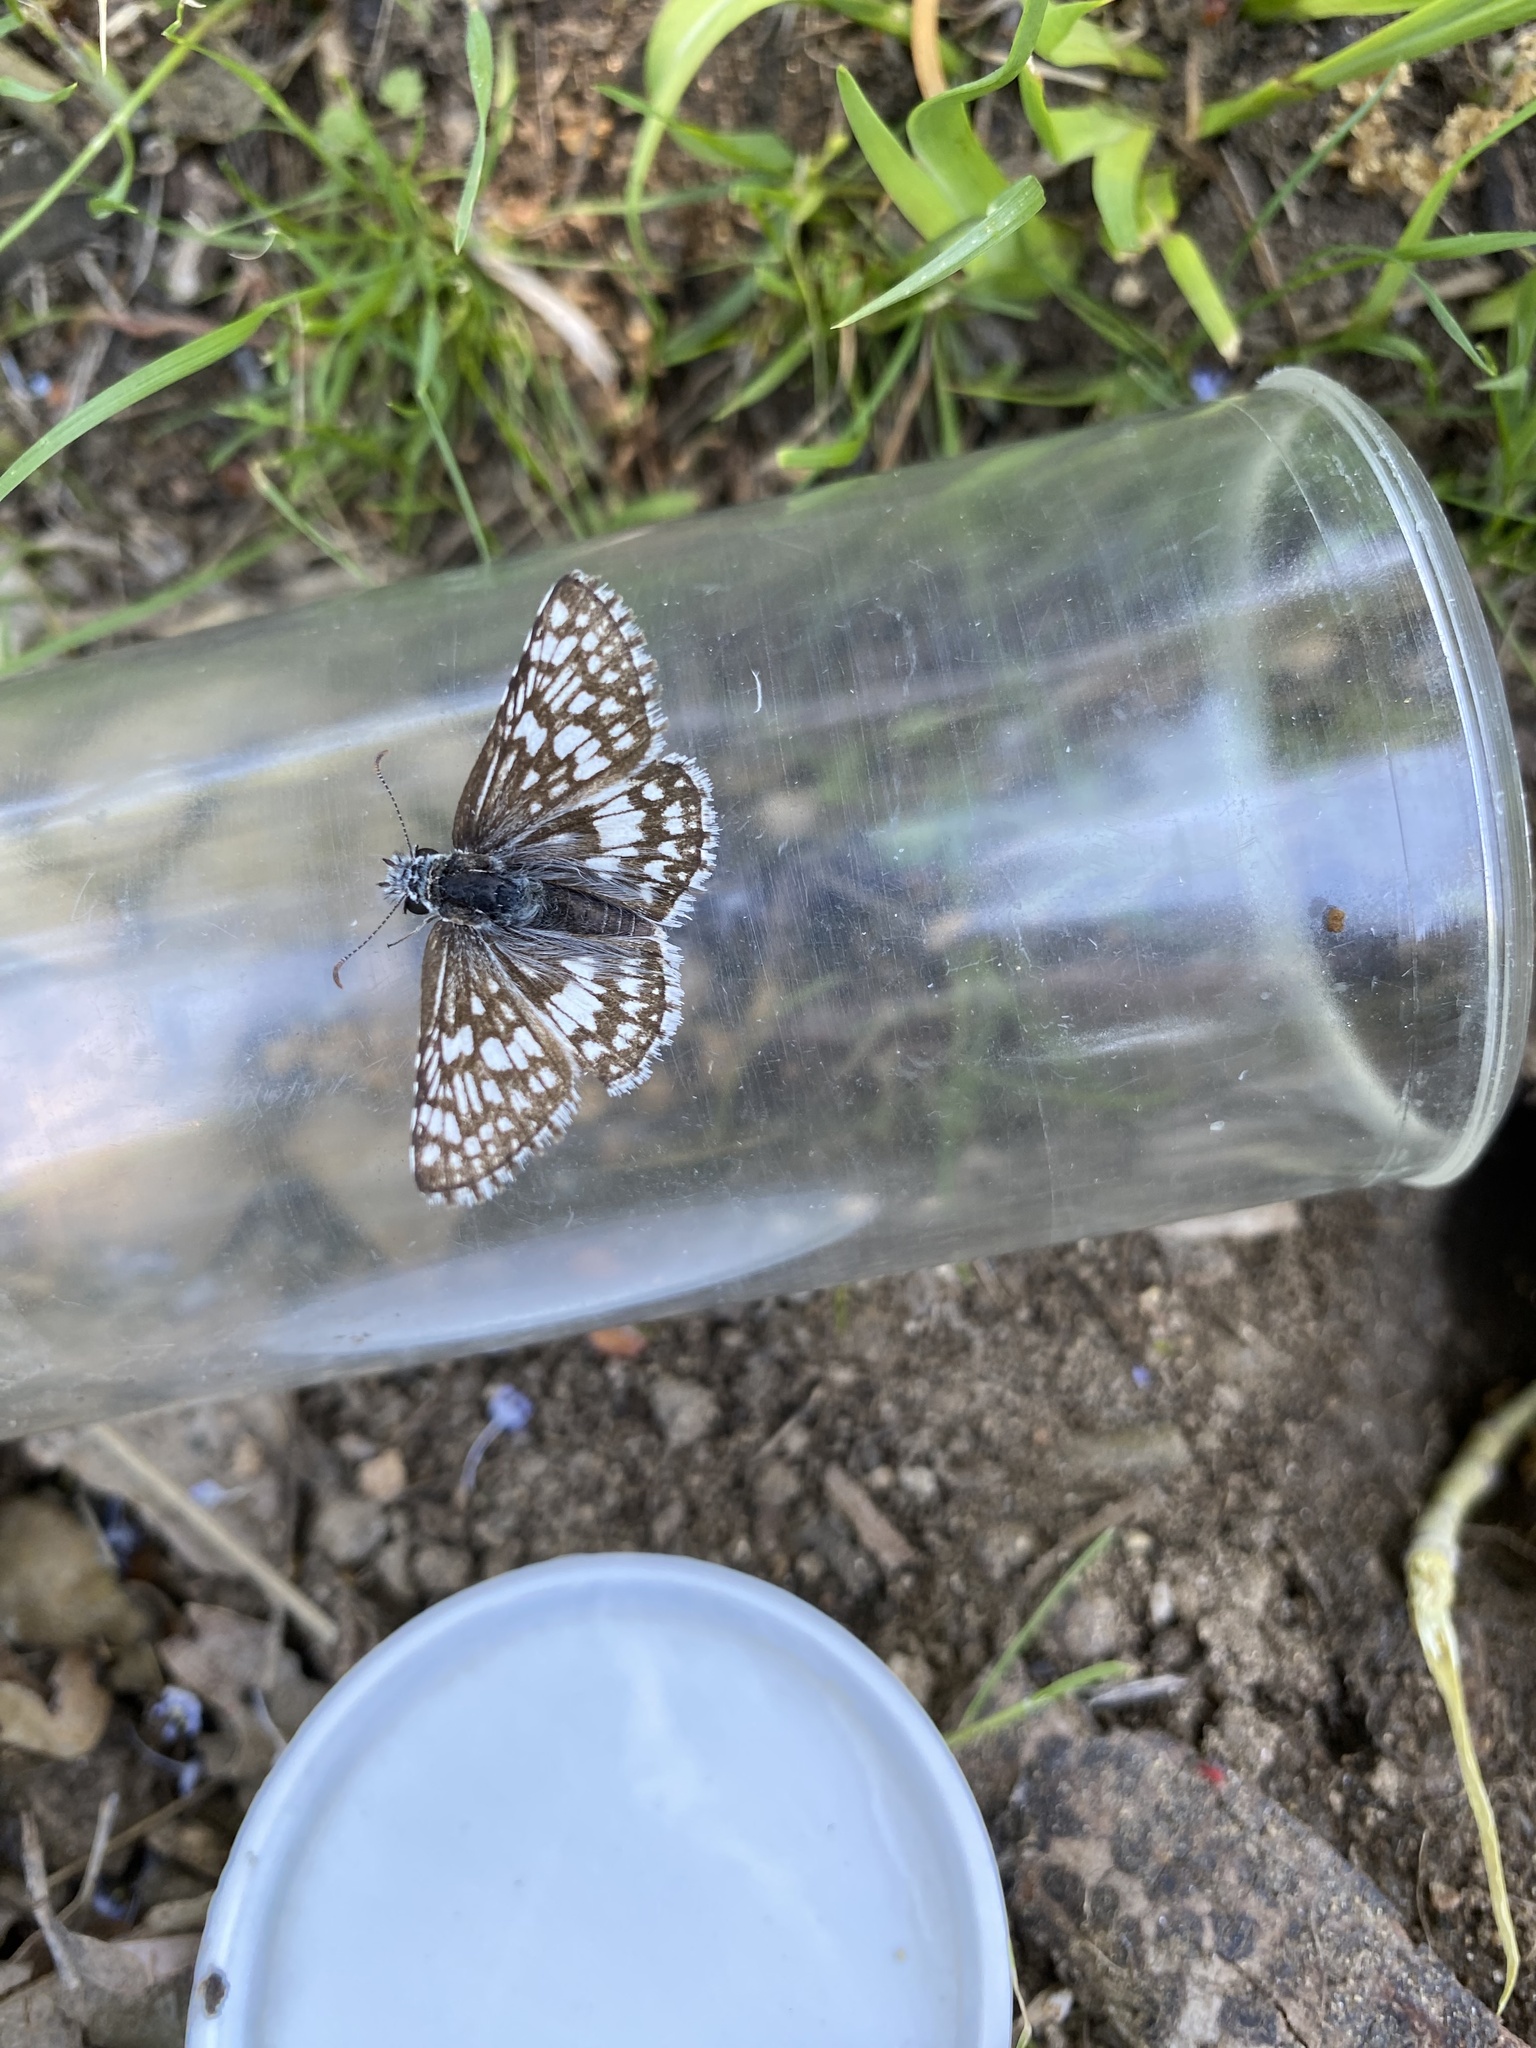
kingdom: Animalia
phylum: Arthropoda
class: Insecta
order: Lepidoptera
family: Hesperiidae
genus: Burnsius
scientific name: Burnsius albezens
